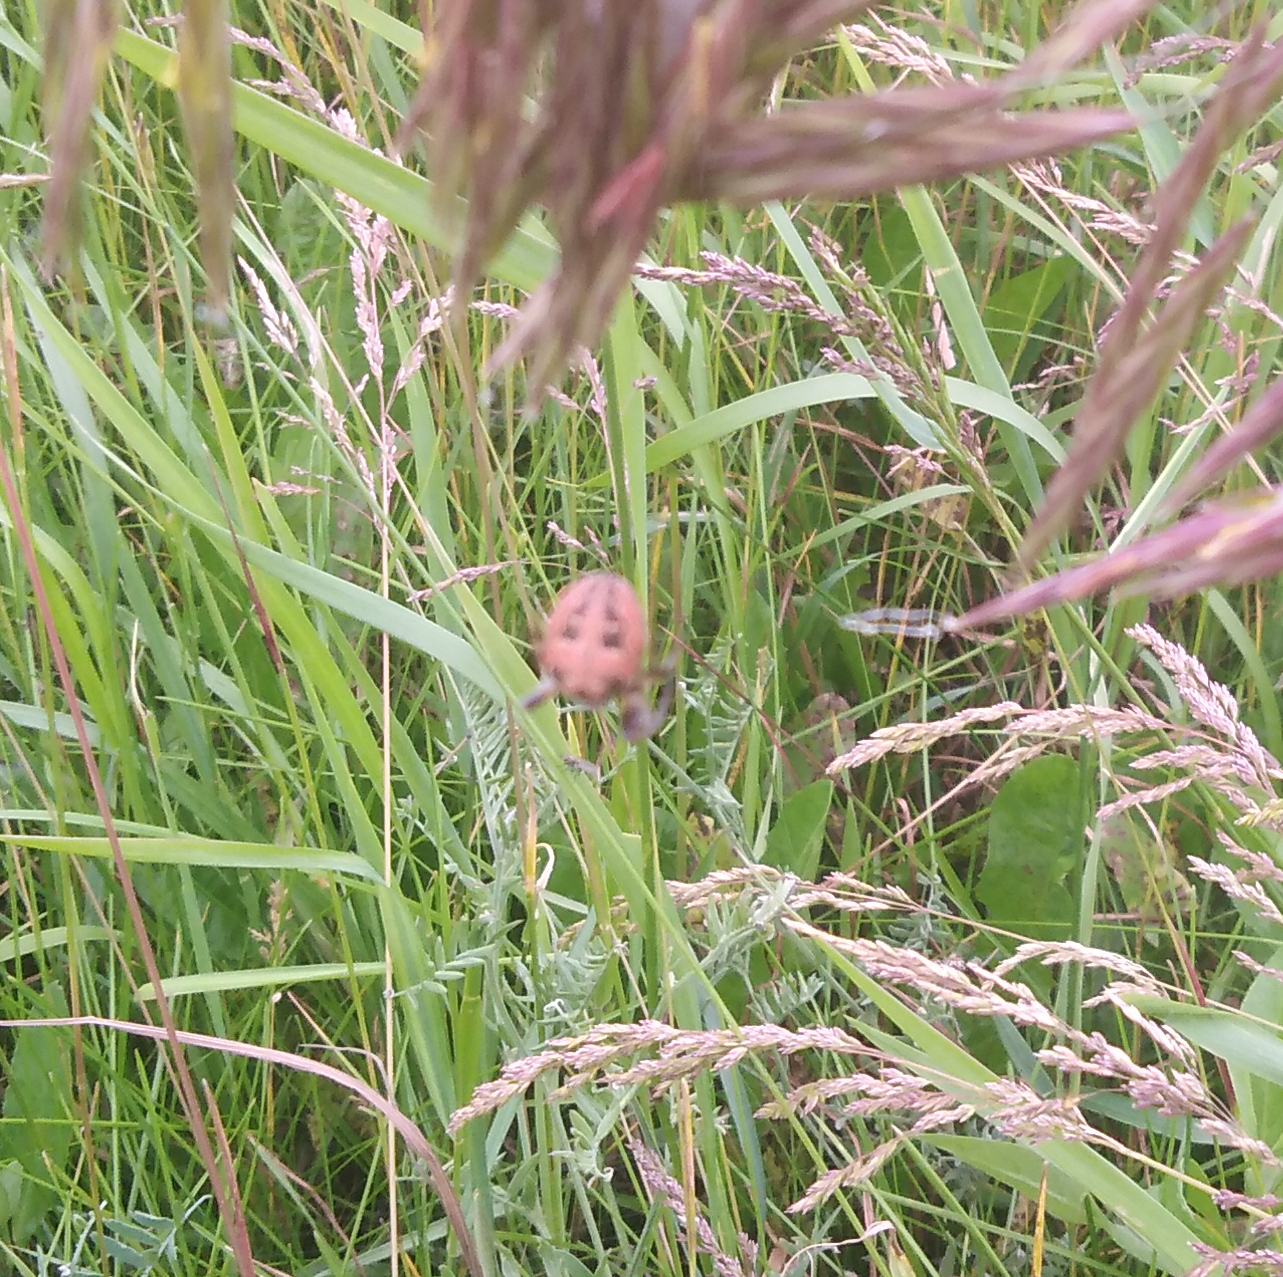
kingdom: Animalia
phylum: Arthropoda
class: Arachnida
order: Araneae
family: Araneidae
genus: Araneus
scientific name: Araneus diadematus
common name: Cross orbweaver
